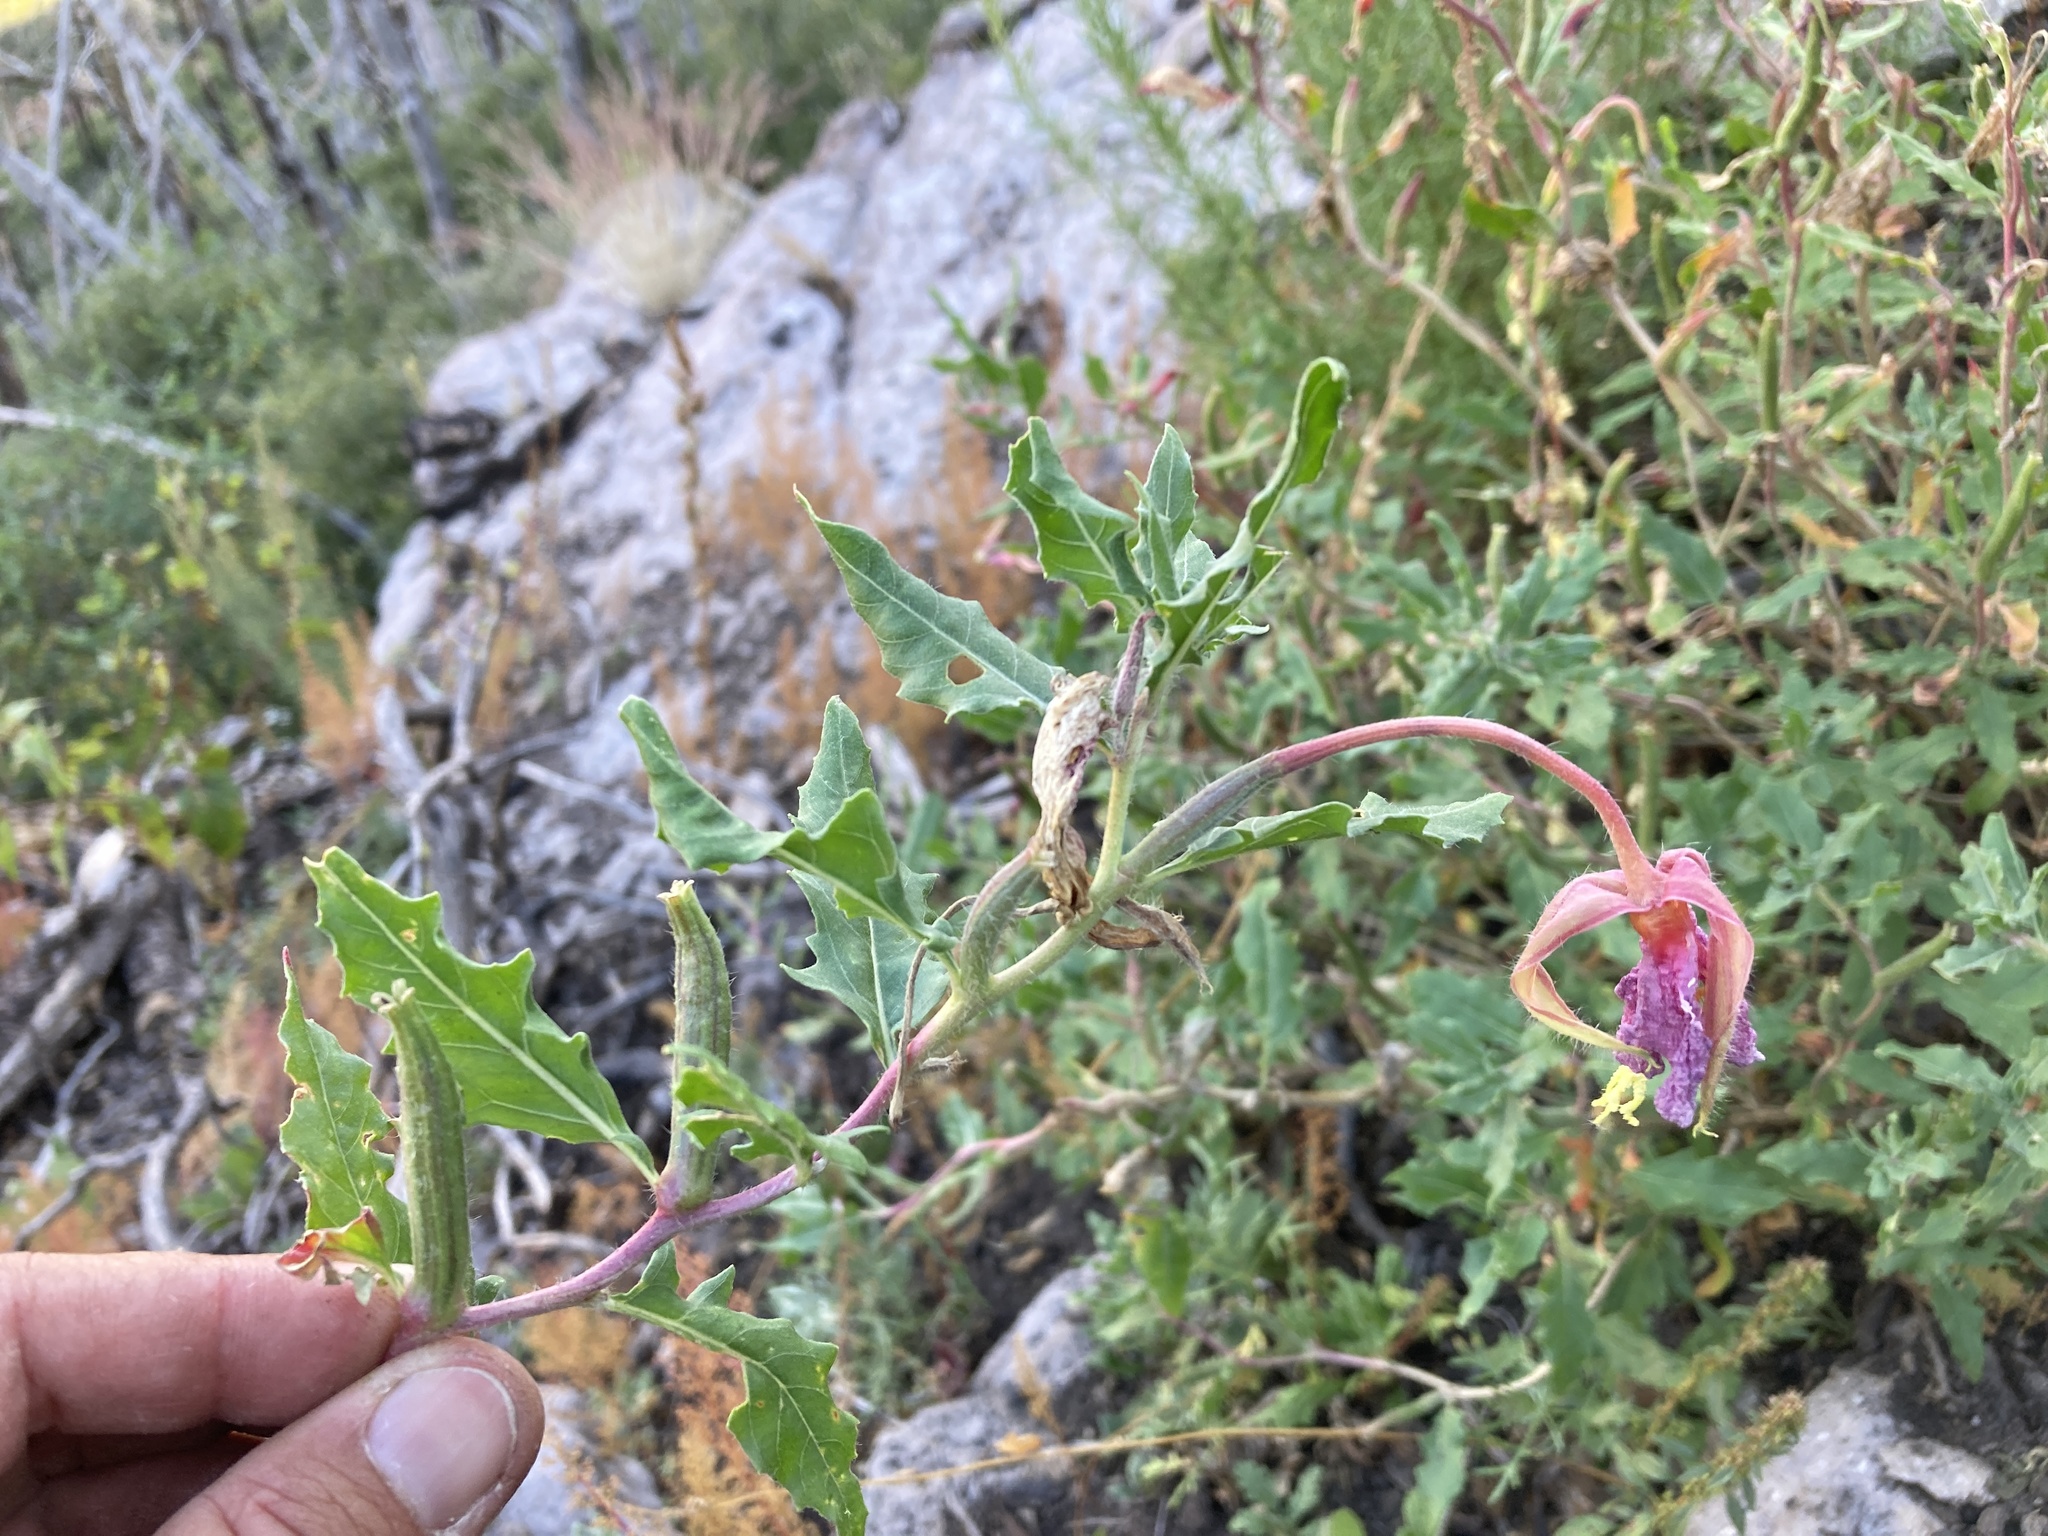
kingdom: Plantae
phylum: Tracheophyta
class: Magnoliopsida
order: Myrtales
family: Onagraceae
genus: Oenothera
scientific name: Oenothera neomexicana
